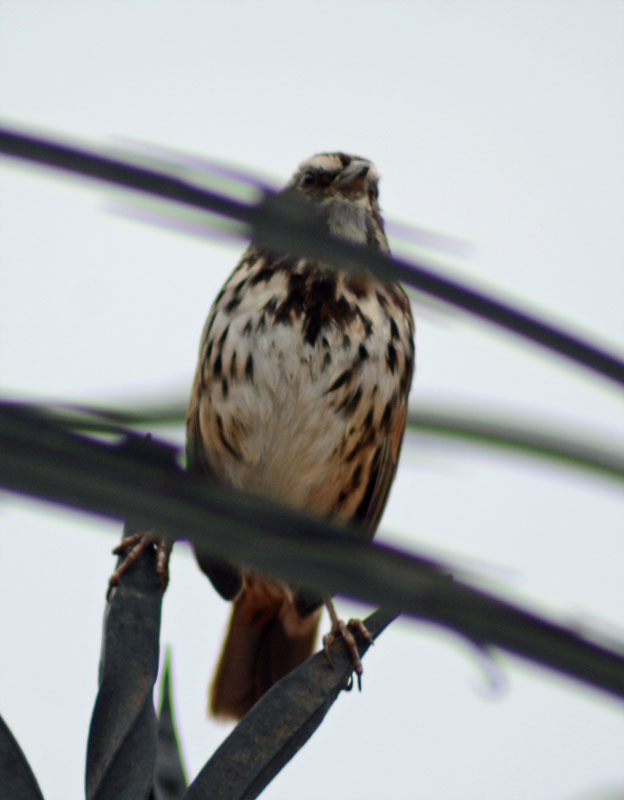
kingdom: Animalia
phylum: Chordata
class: Aves
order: Passeriformes
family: Passerellidae
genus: Melospiza
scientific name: Melospiza melodia
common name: Song sparrow
